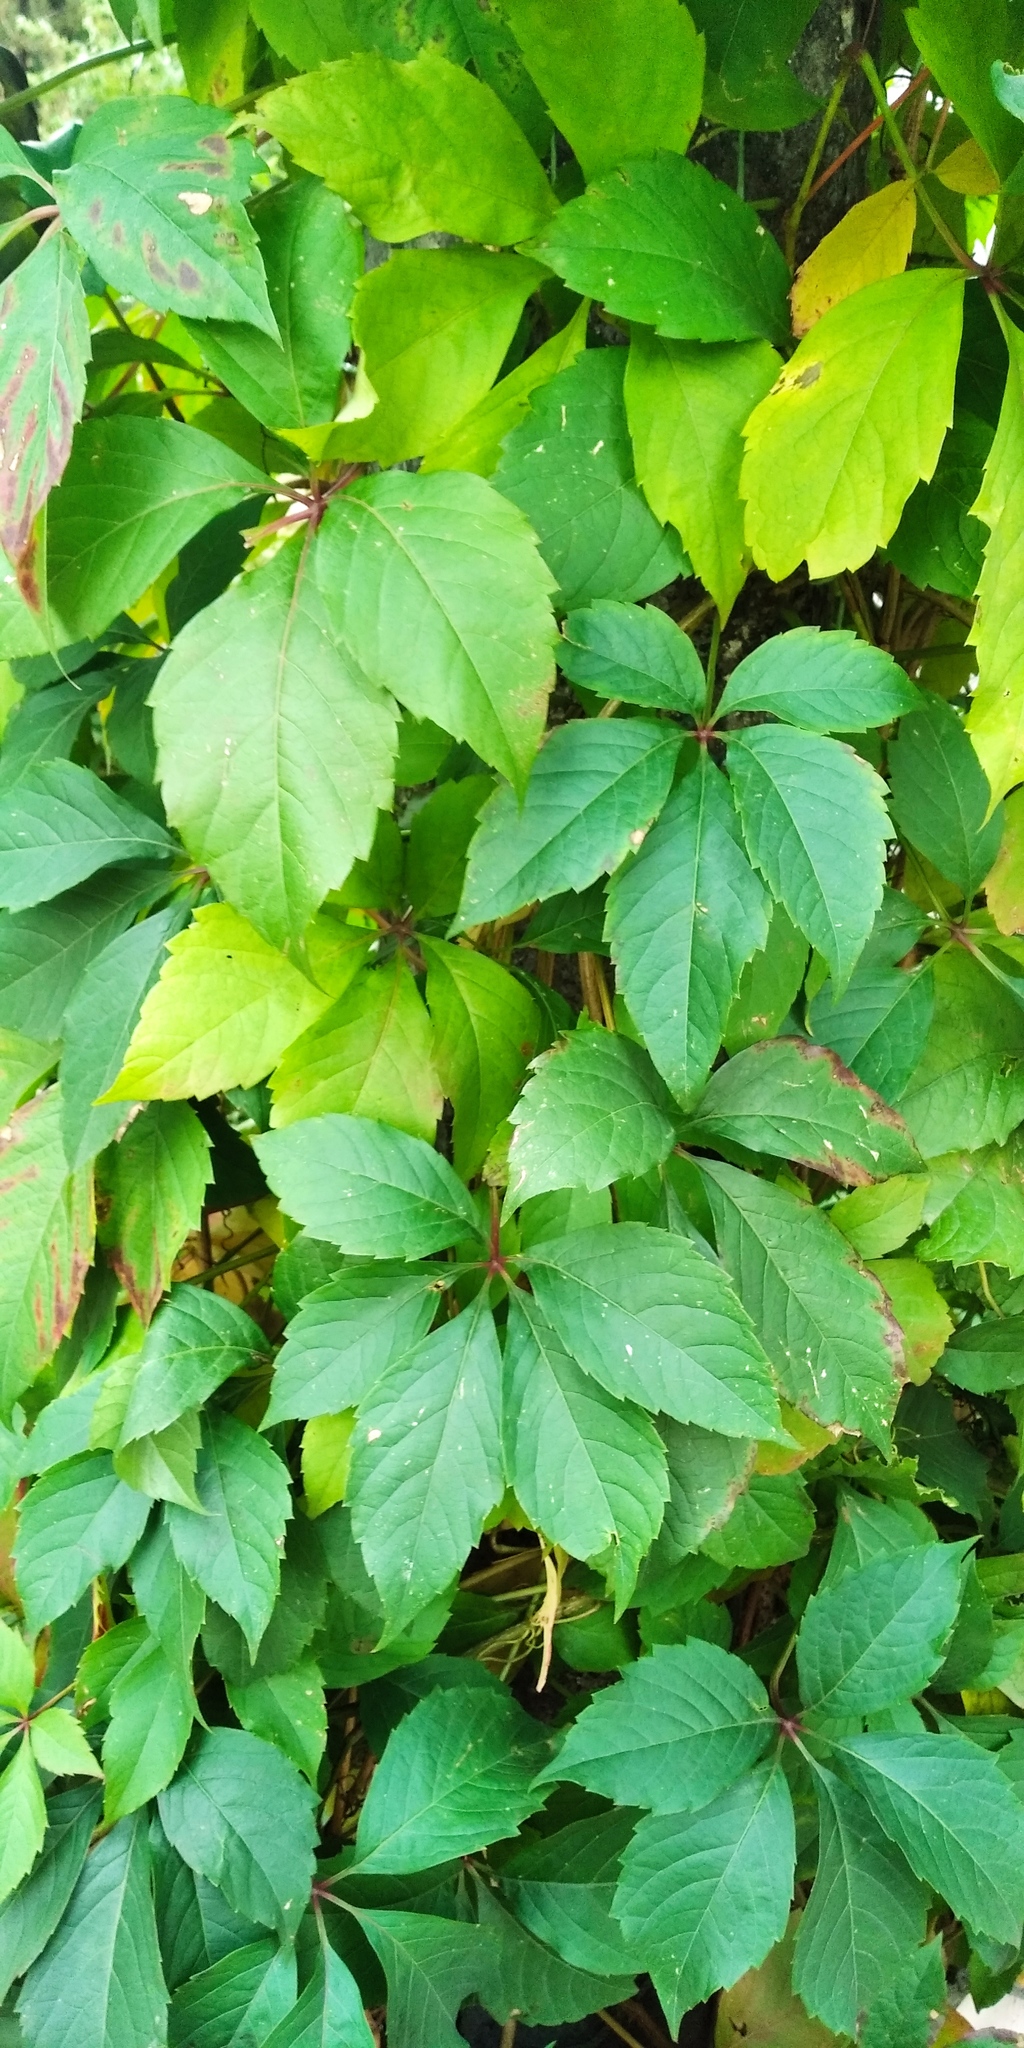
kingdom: Plantae
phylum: Tracheophyta
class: Magnoliopsida
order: Vitales
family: Vitaceae
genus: Parthenocissus
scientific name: Parthenocissus inserta
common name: False virginia-creeper
